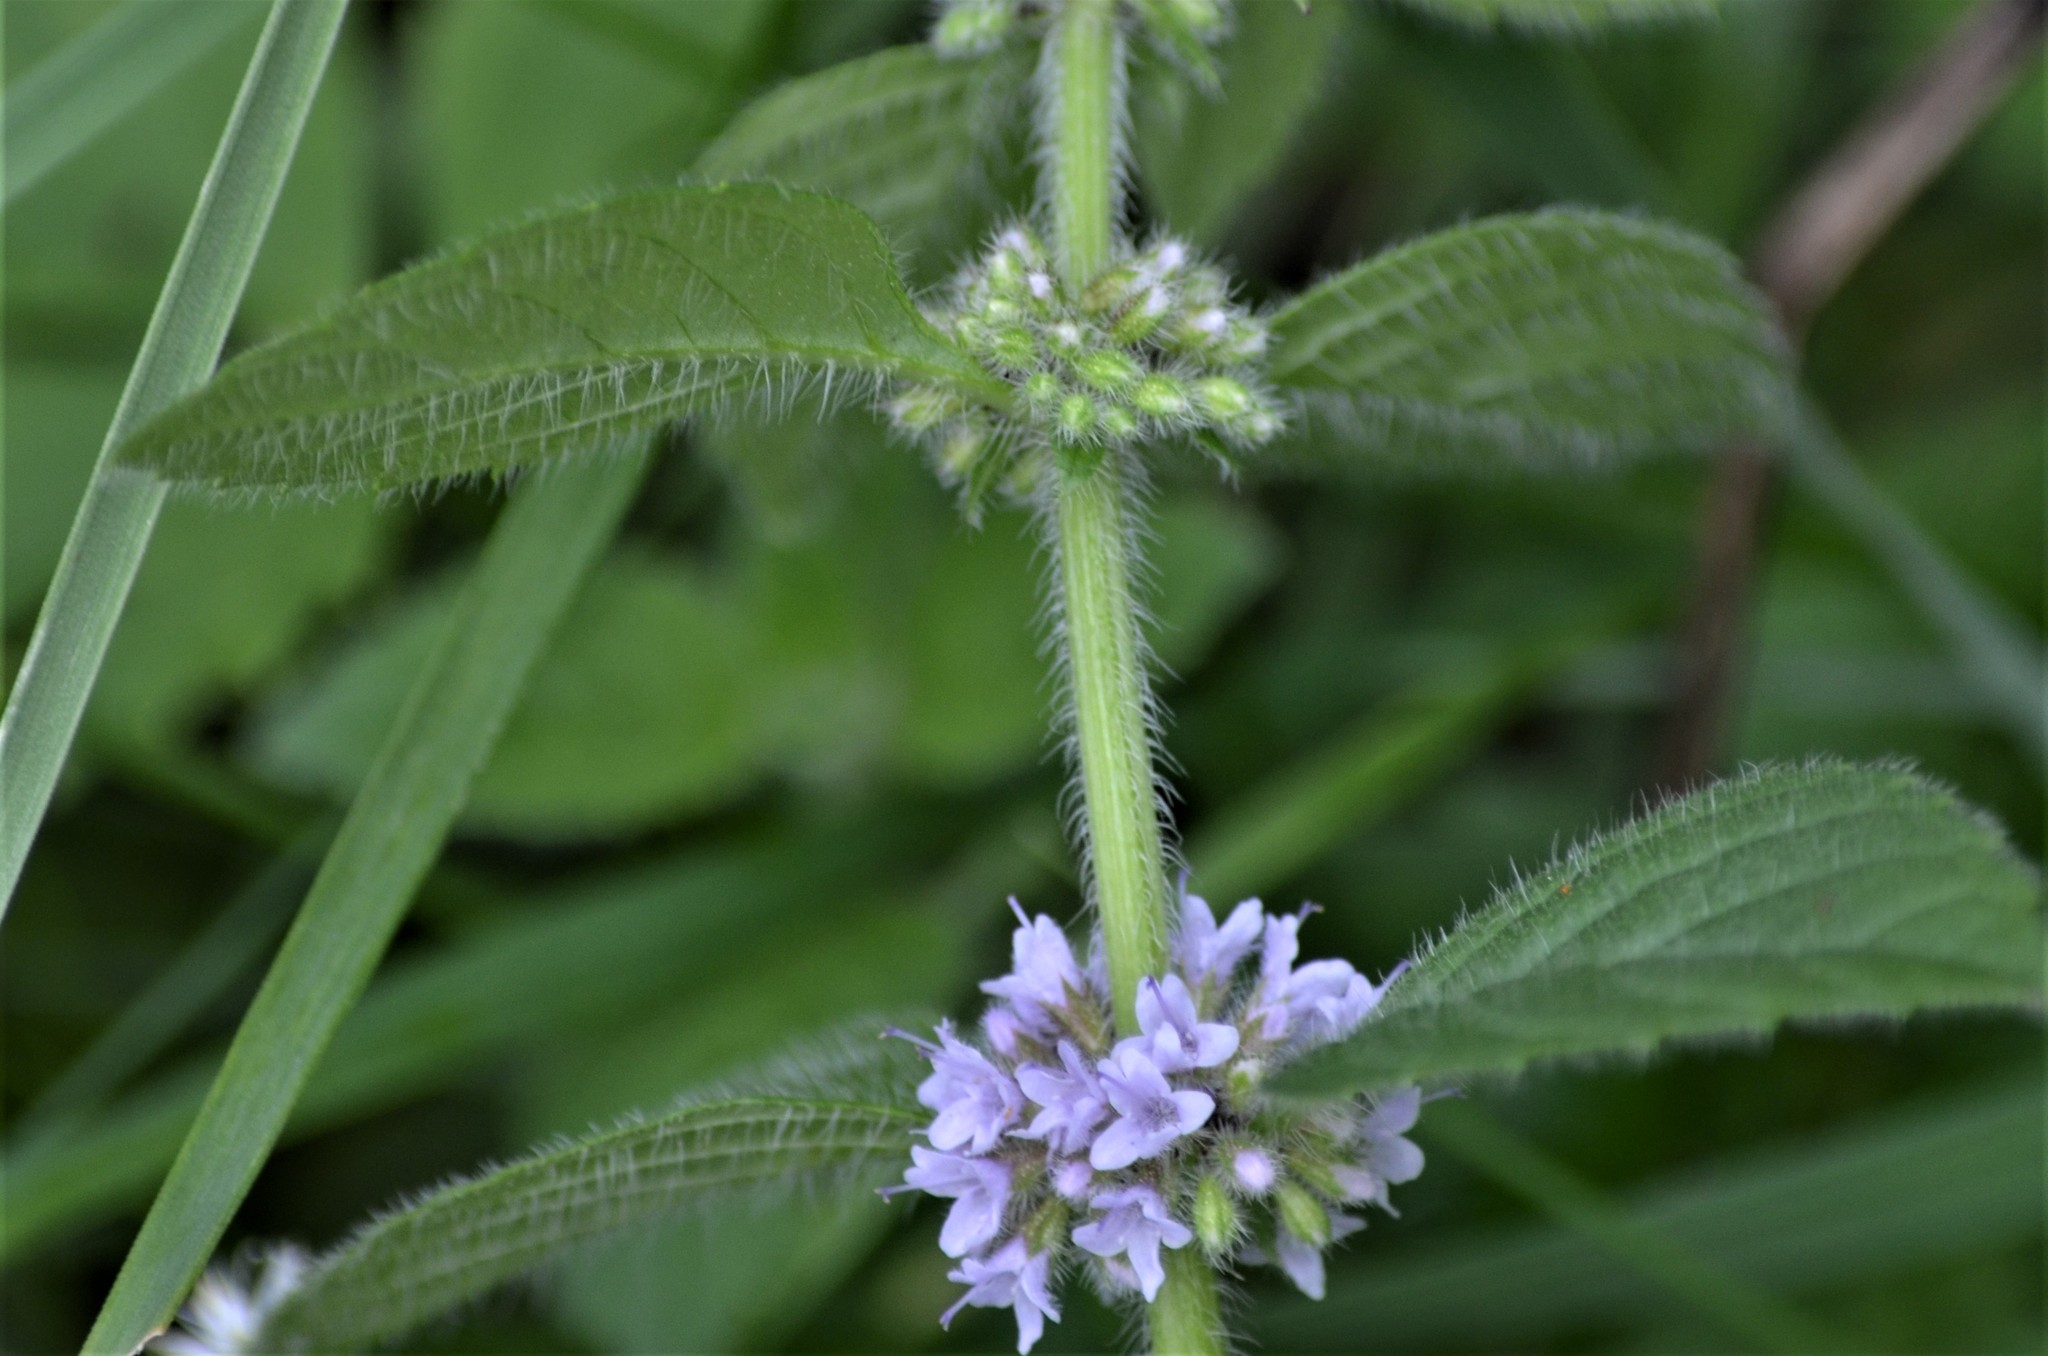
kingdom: Plantae
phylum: Tracheophyta
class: Magnoliopsida
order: Lamiales
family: Lamiaceae
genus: Mentha
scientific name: Mentha arvensis
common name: Corn mint
